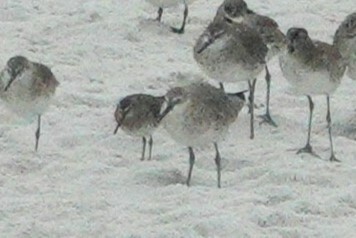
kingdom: Animalia
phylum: Chordata
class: Aves
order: Charadriiformes
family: Scolopacidae
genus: Calidris
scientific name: Calidris canutus
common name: Red knot
